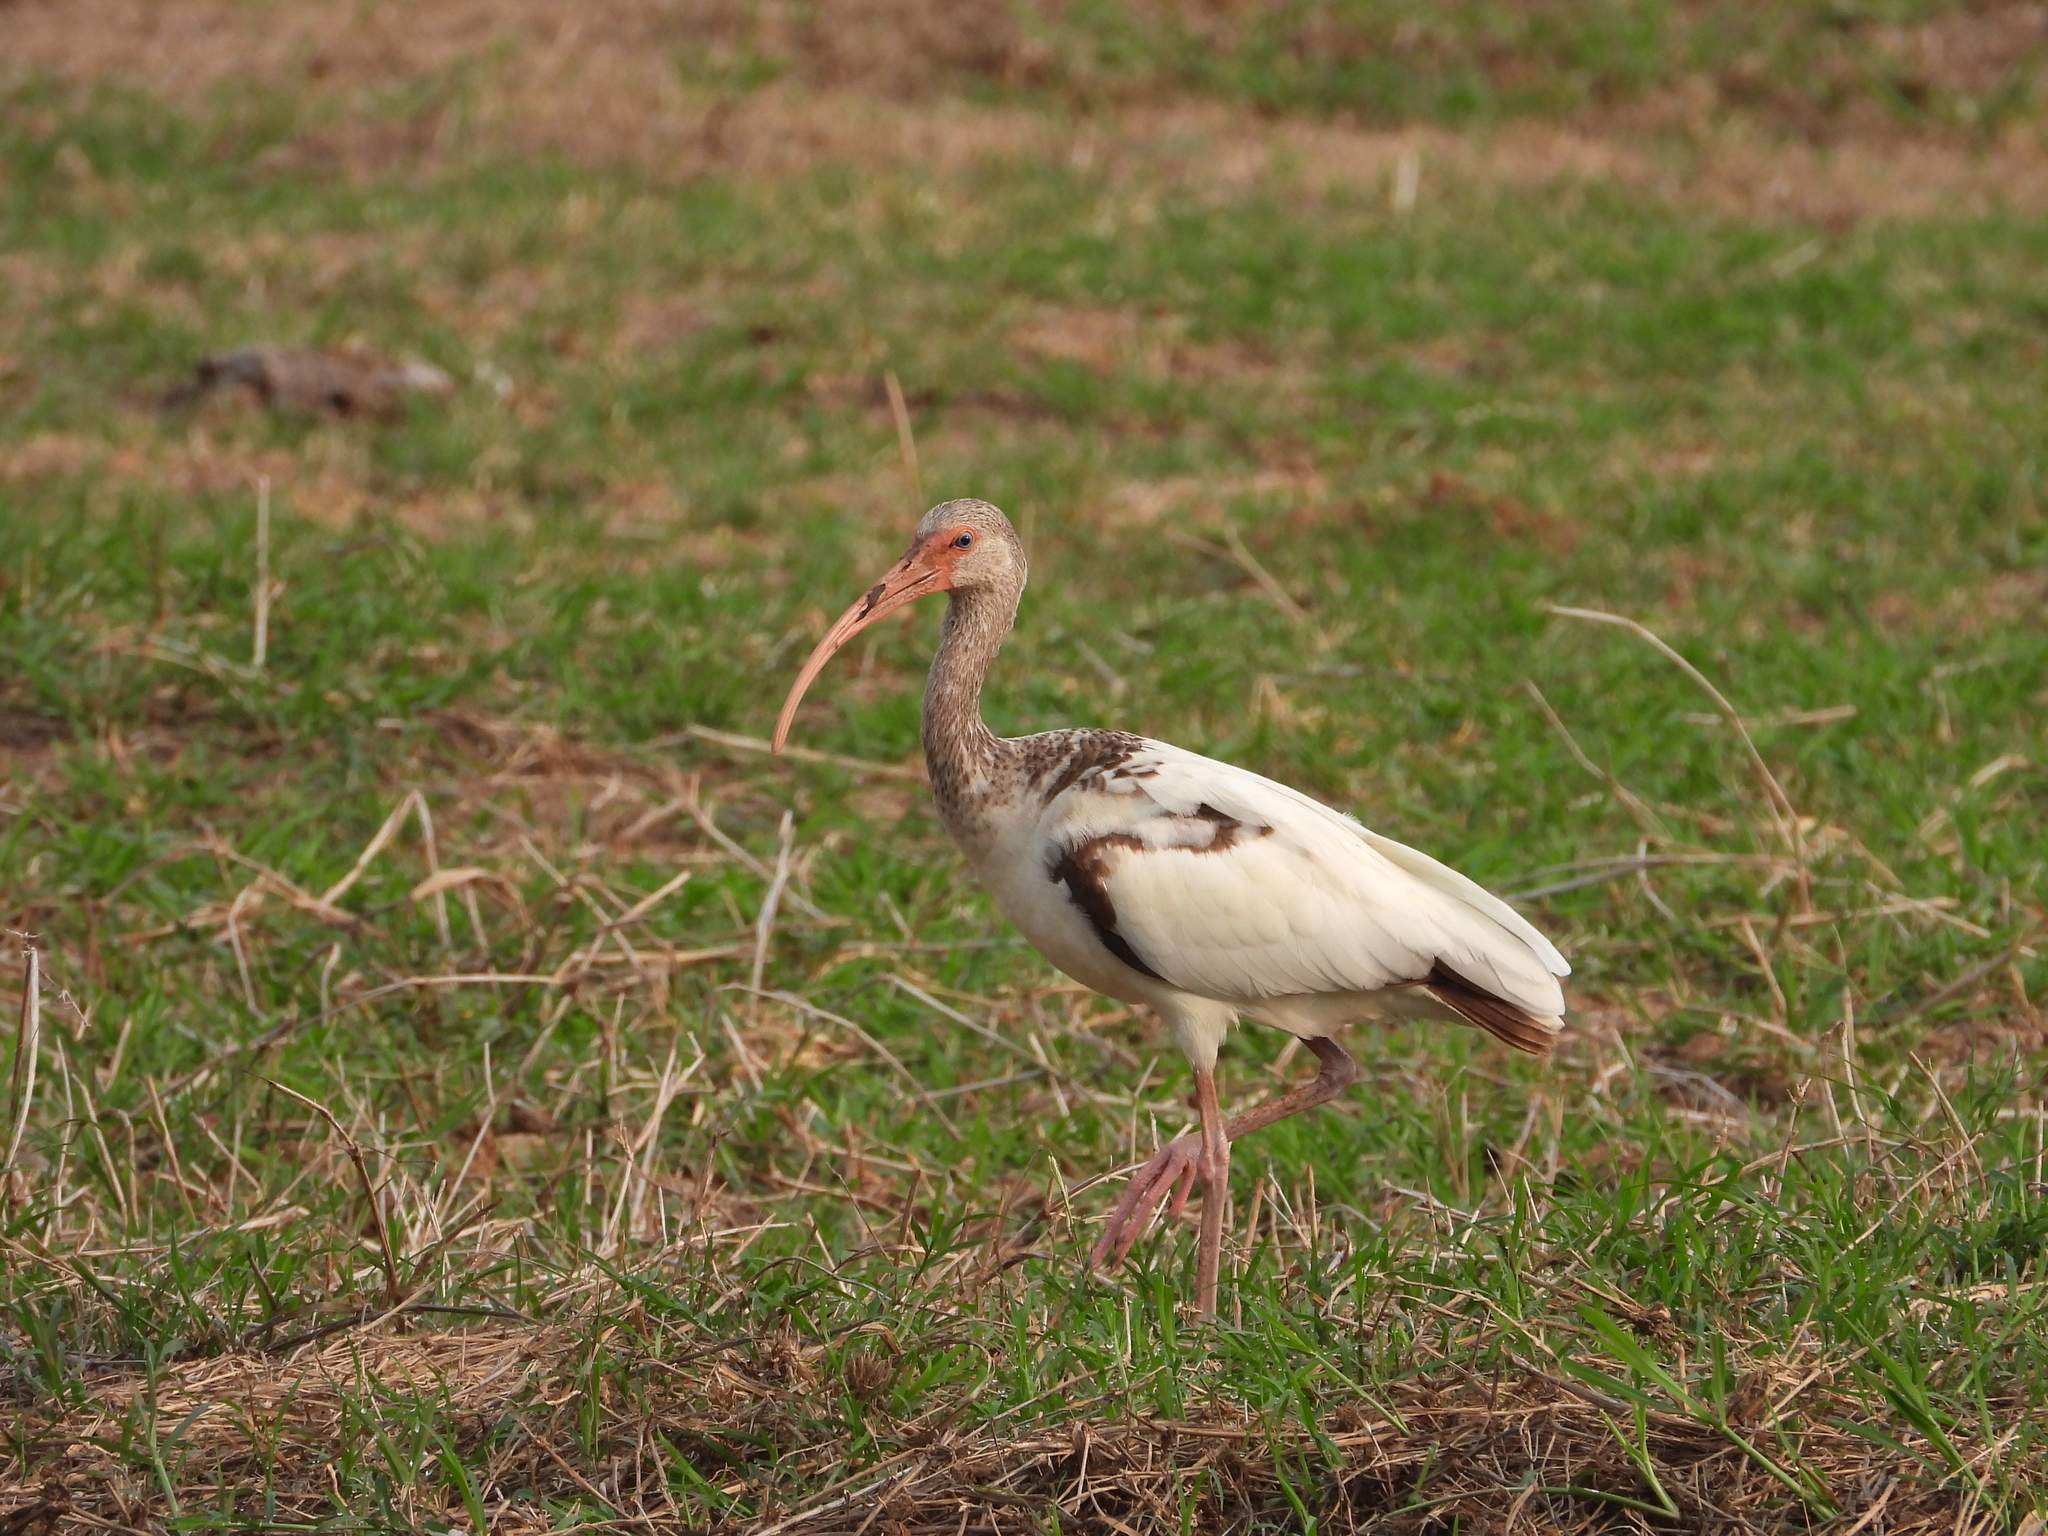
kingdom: Animalia
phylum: Chordata
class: Aves
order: Pelecaniformes
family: Threskiornithidae
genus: Eudocimus
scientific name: Eudocimus albus
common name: White ibis
